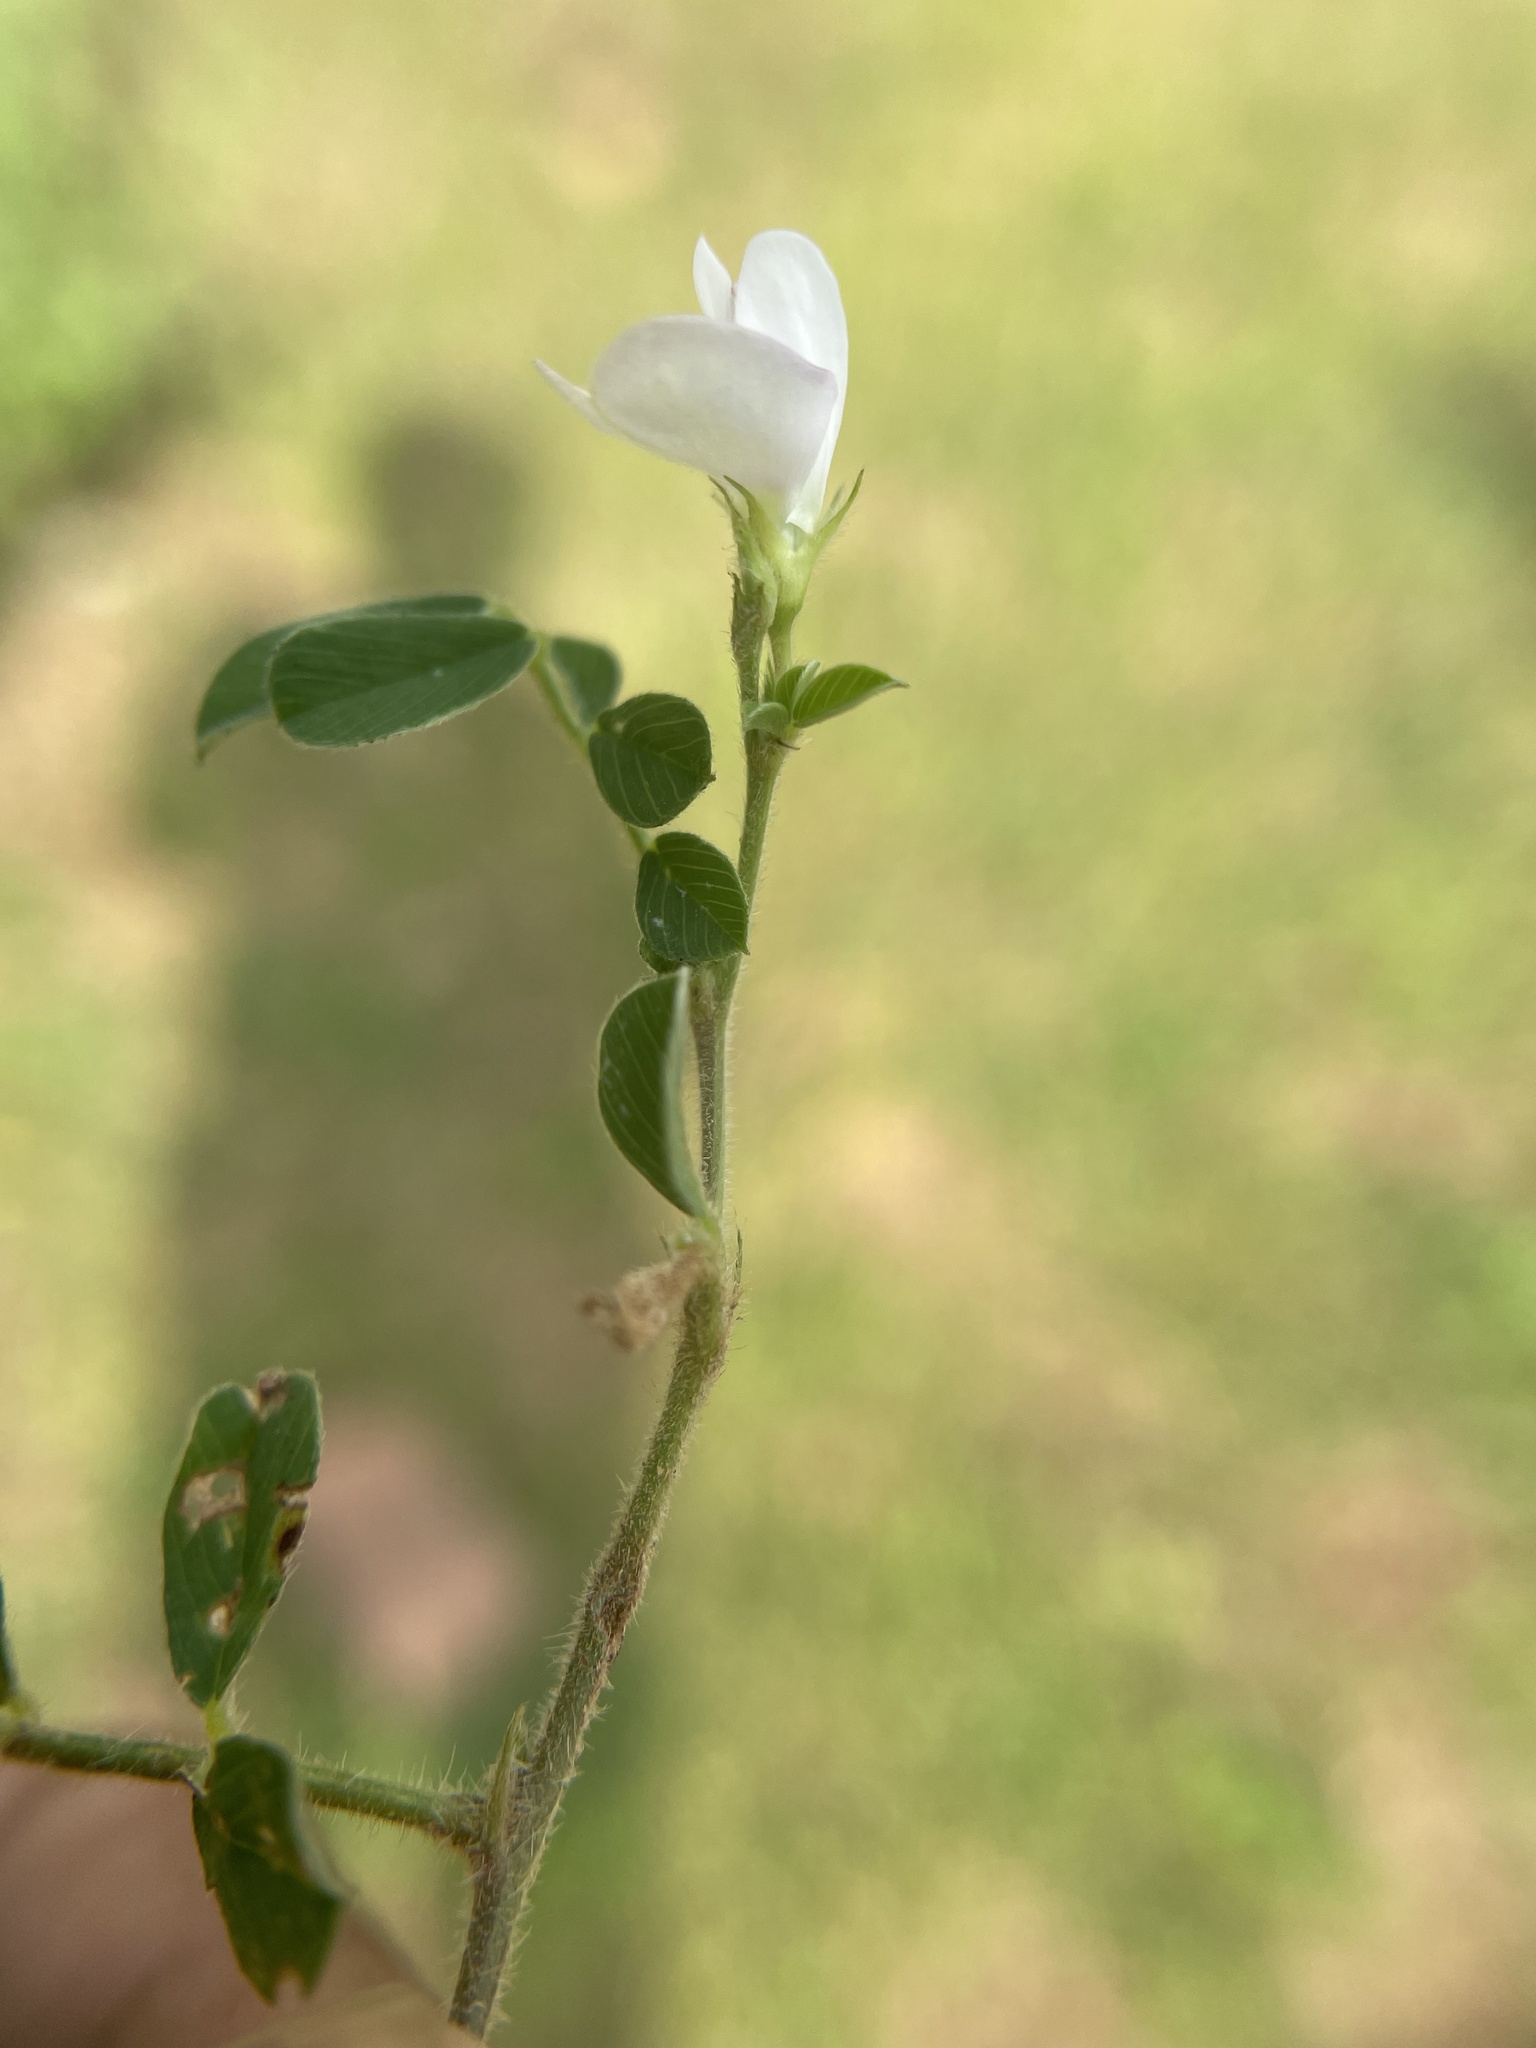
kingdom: Plantae
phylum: Tracheophyta
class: Magnoliopsida
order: Fabales
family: Fabaceae
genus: Tephrosia
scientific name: Tephrosia pumila
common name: Indigo sauvage
